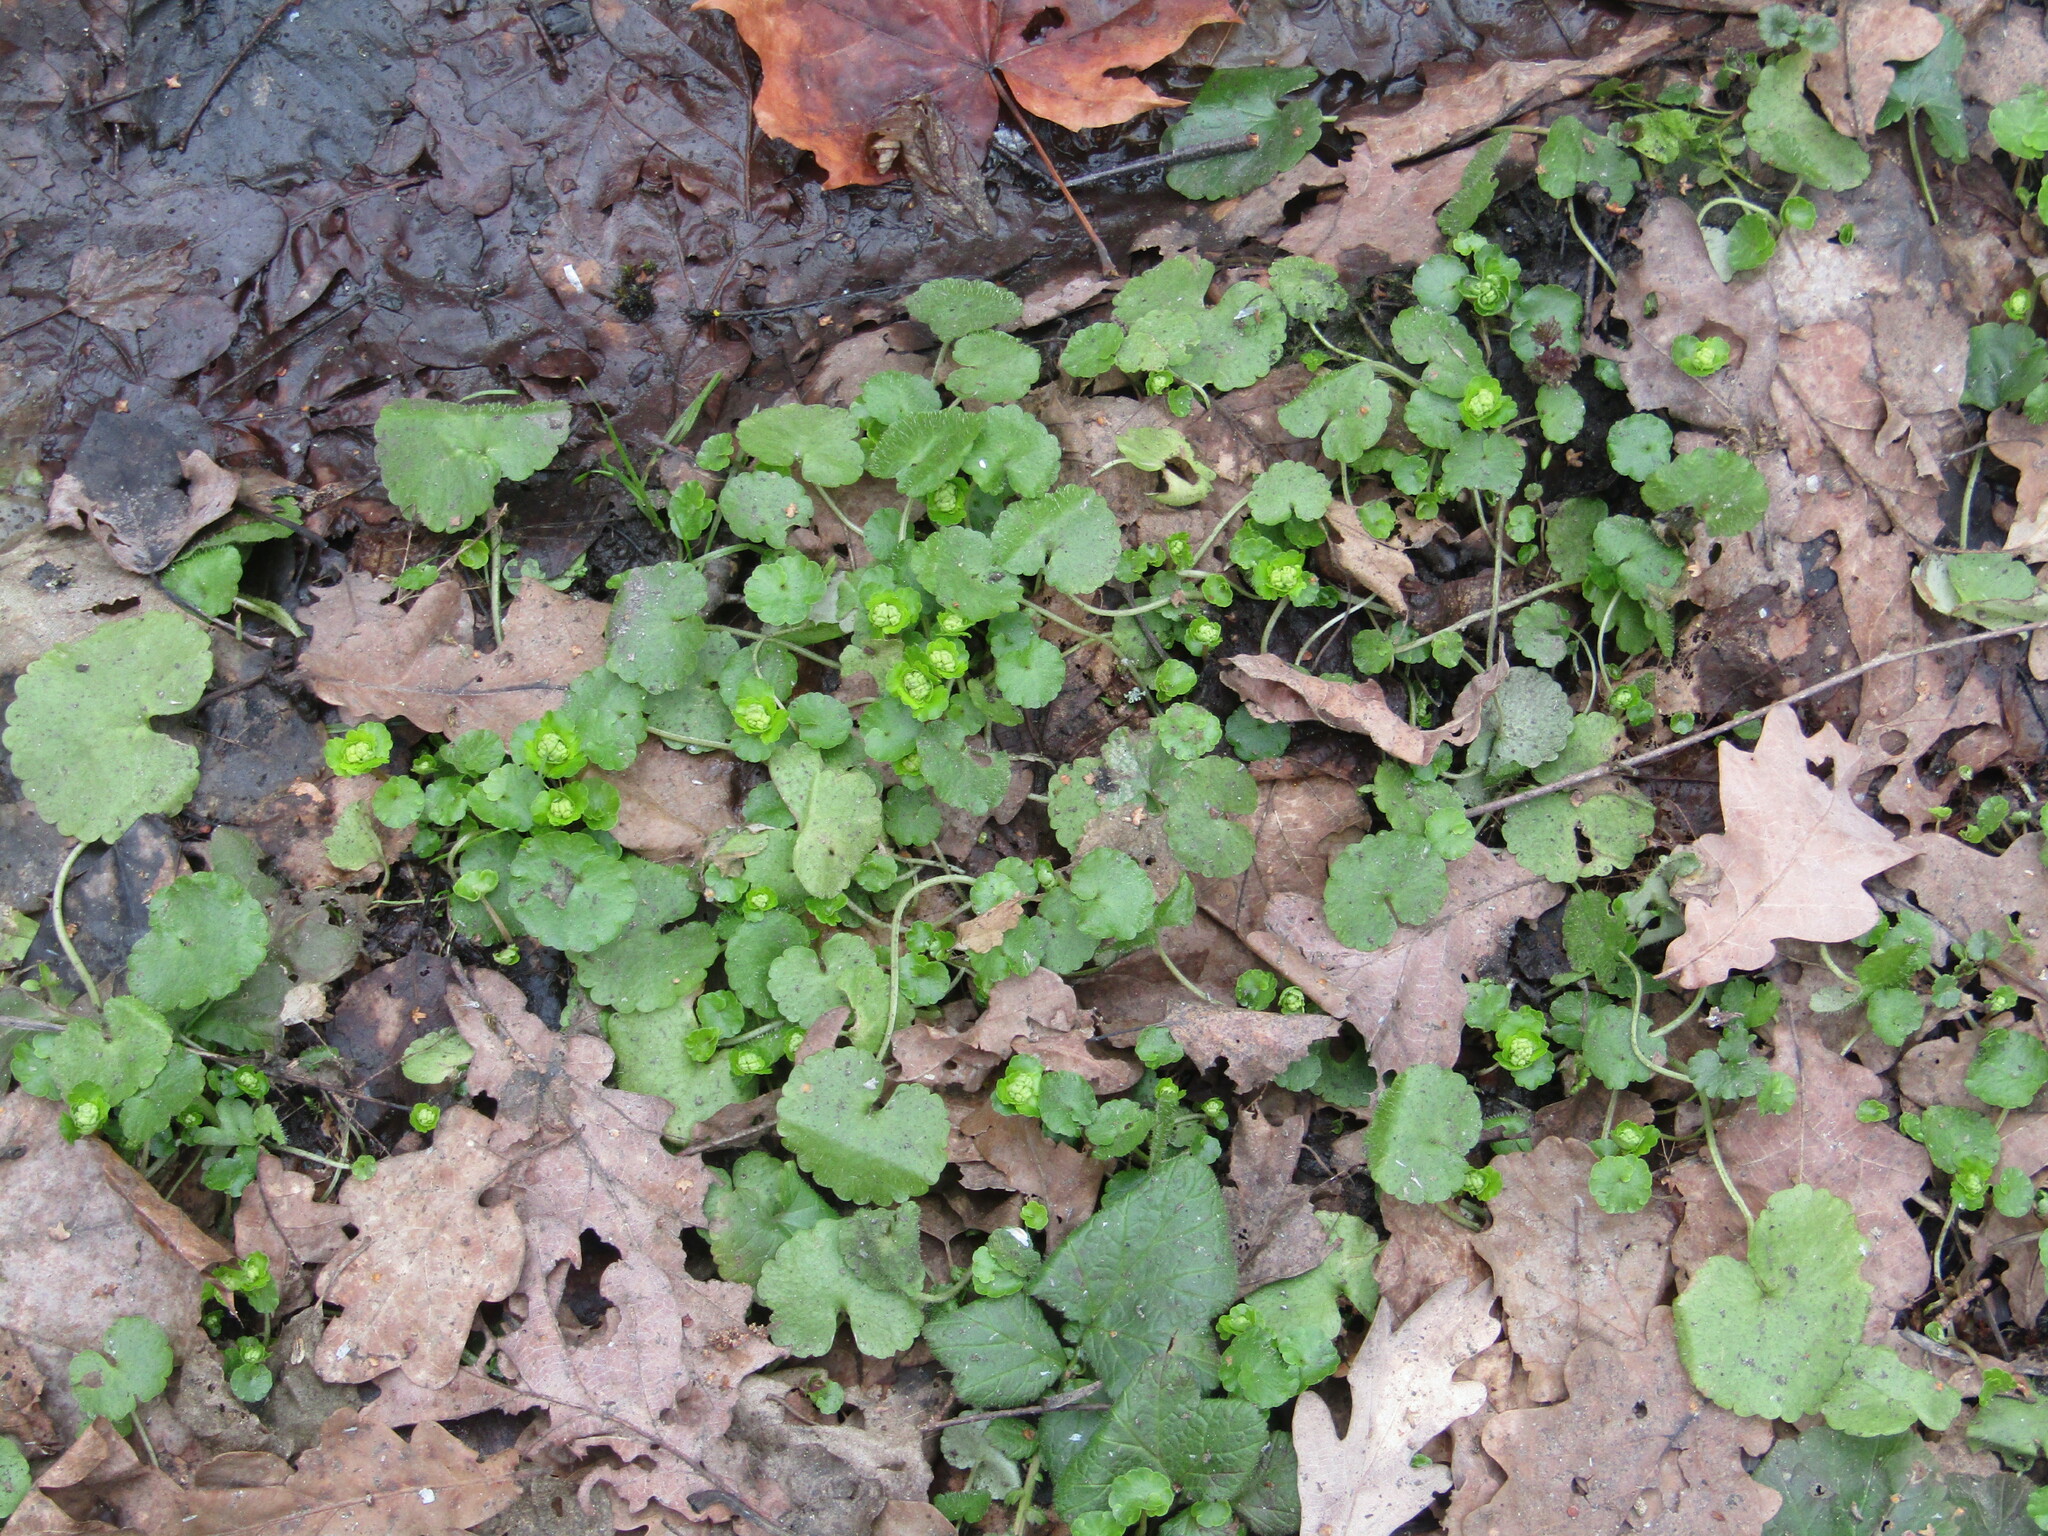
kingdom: Plantae
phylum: Tracheophyta
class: Magnoliopsida
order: Saxifragales
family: Saxifragaceae
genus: Chrysosplenium
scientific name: Chrysosplenium alternifolium
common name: Alternate-leaved golden-saxifrage
